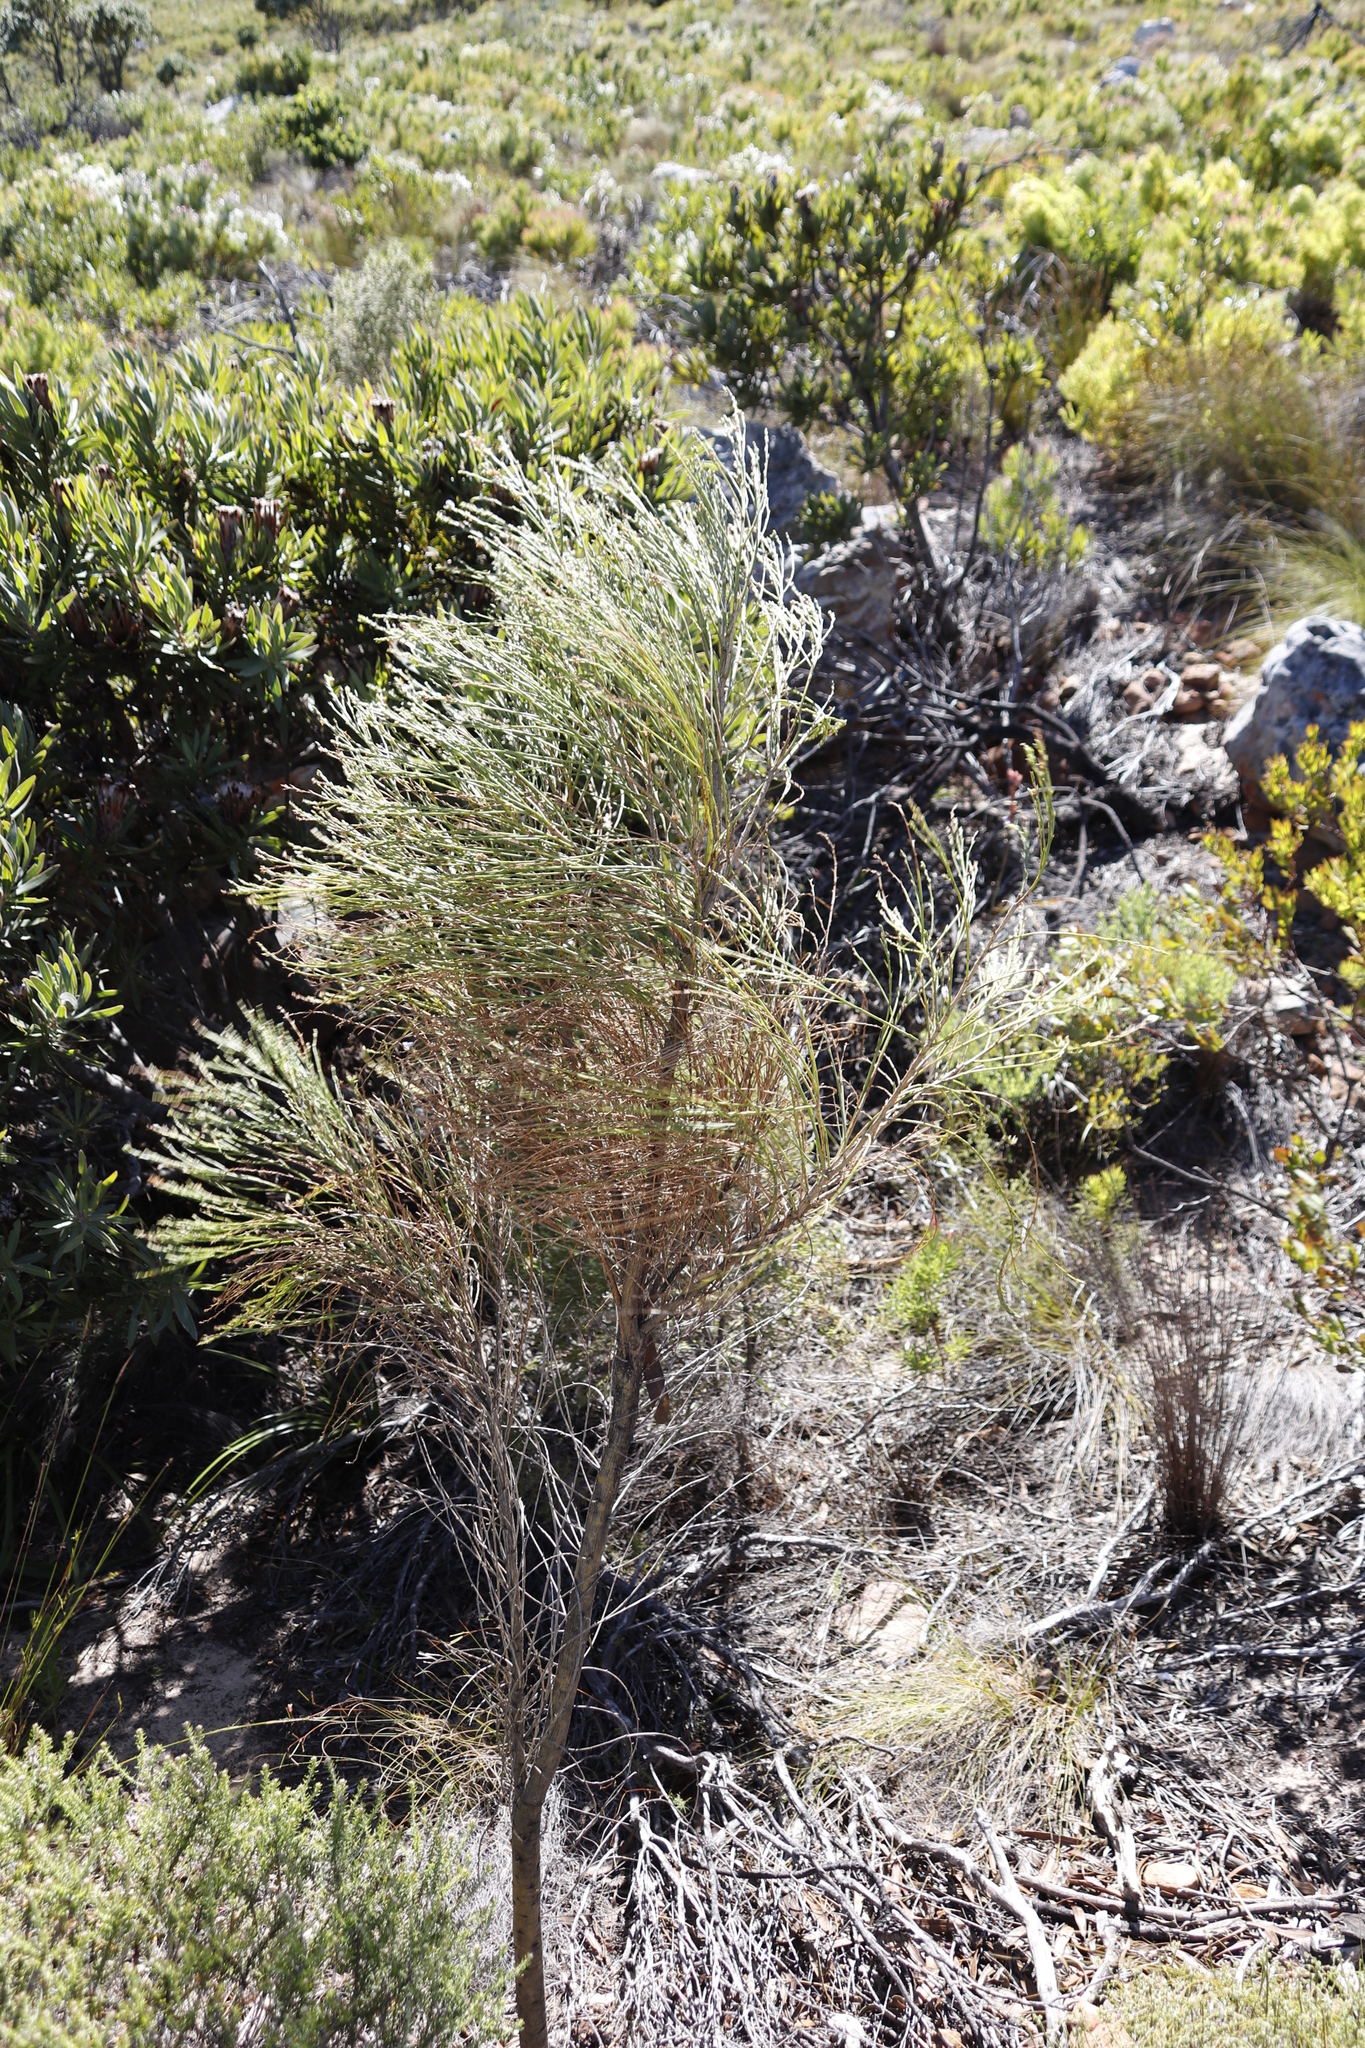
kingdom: Plantae
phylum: Tracheophyta
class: Magnoliopsida
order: Fabales
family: Fabaceae
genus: Psoralea
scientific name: Psoralea aphylla
